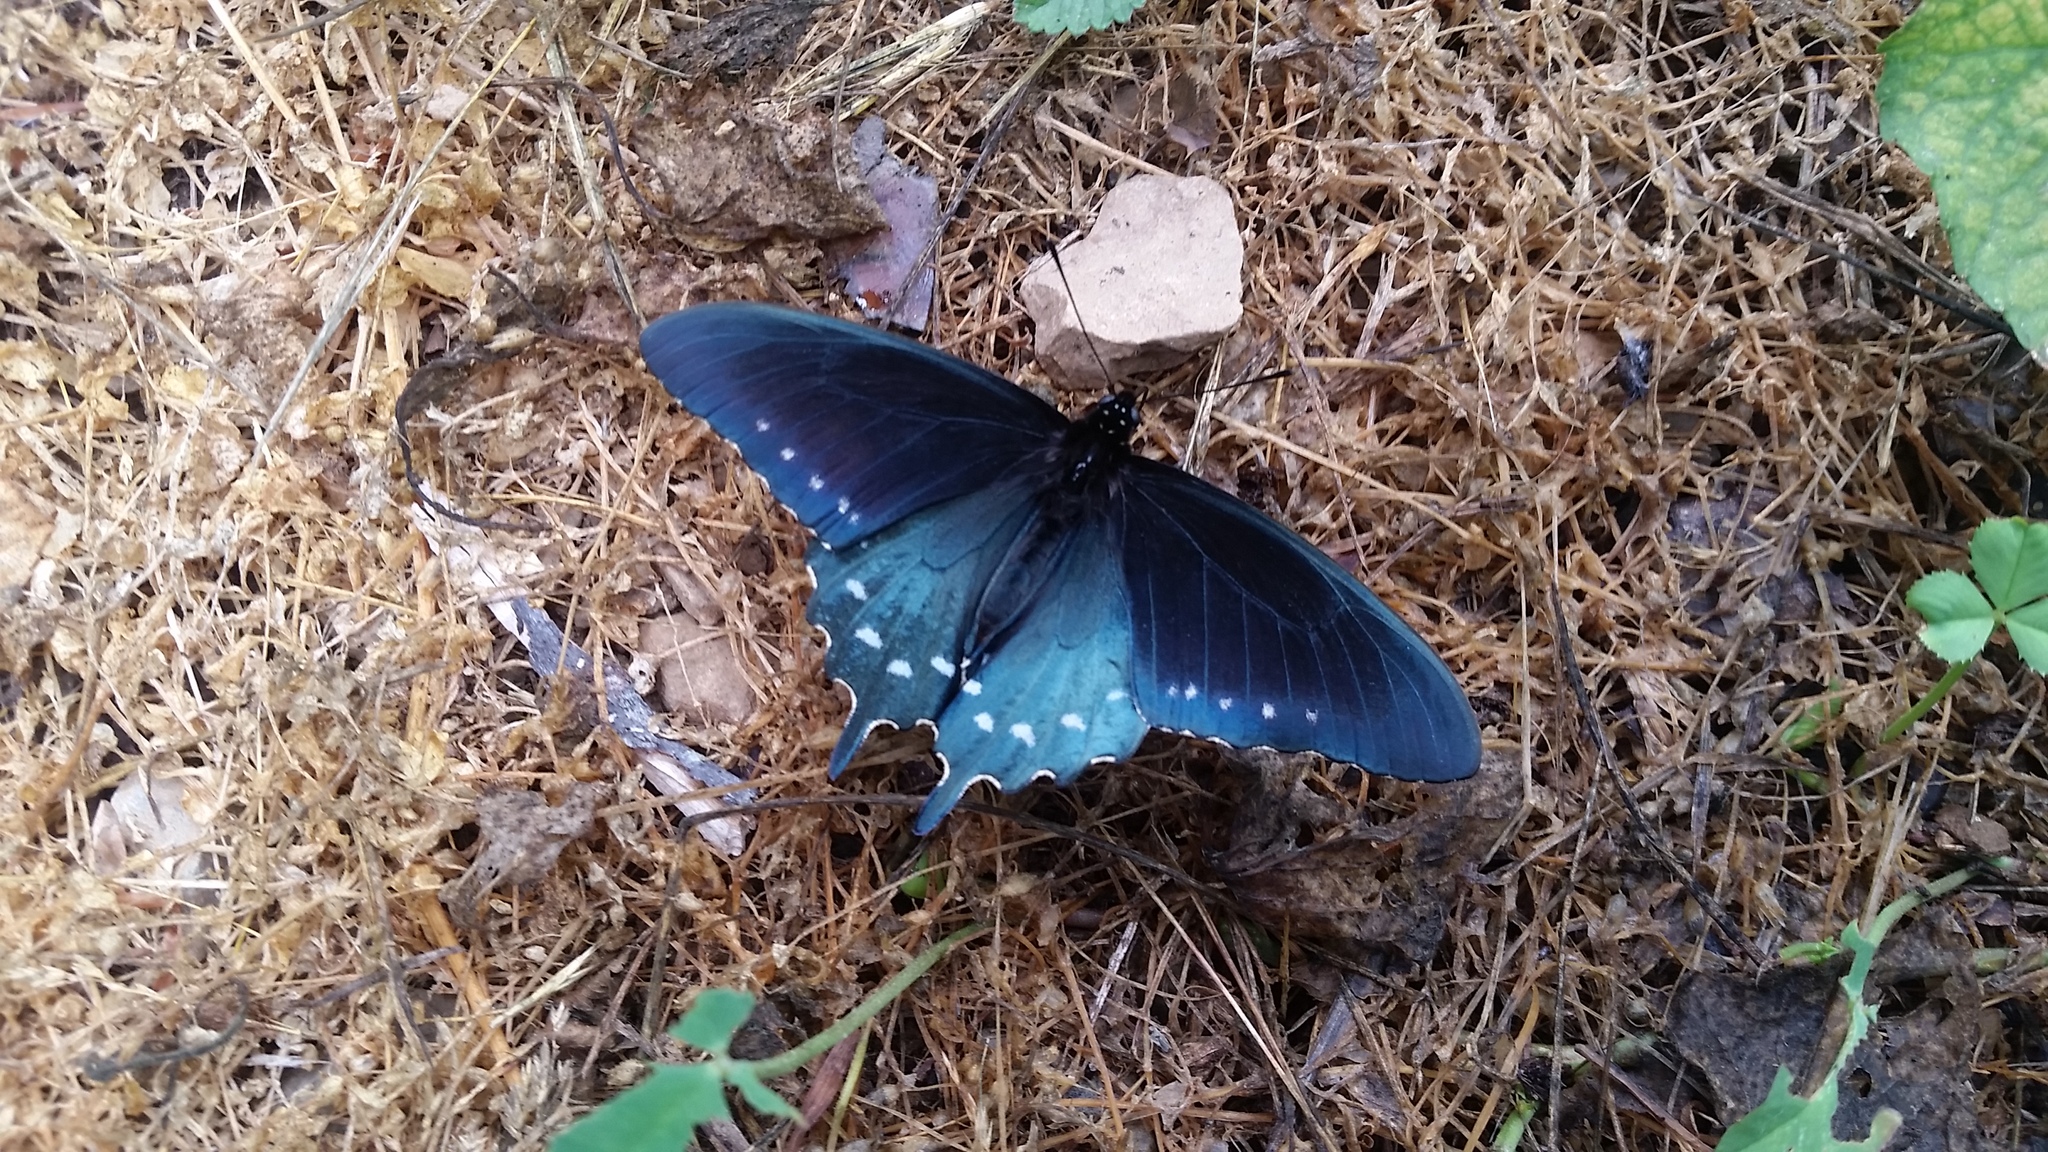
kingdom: Animalia
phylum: Arthropoda
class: Insecta
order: Lepidoptera
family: Papilionidae
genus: Battus
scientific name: Battus philenor
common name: Pipevine swallowtail
